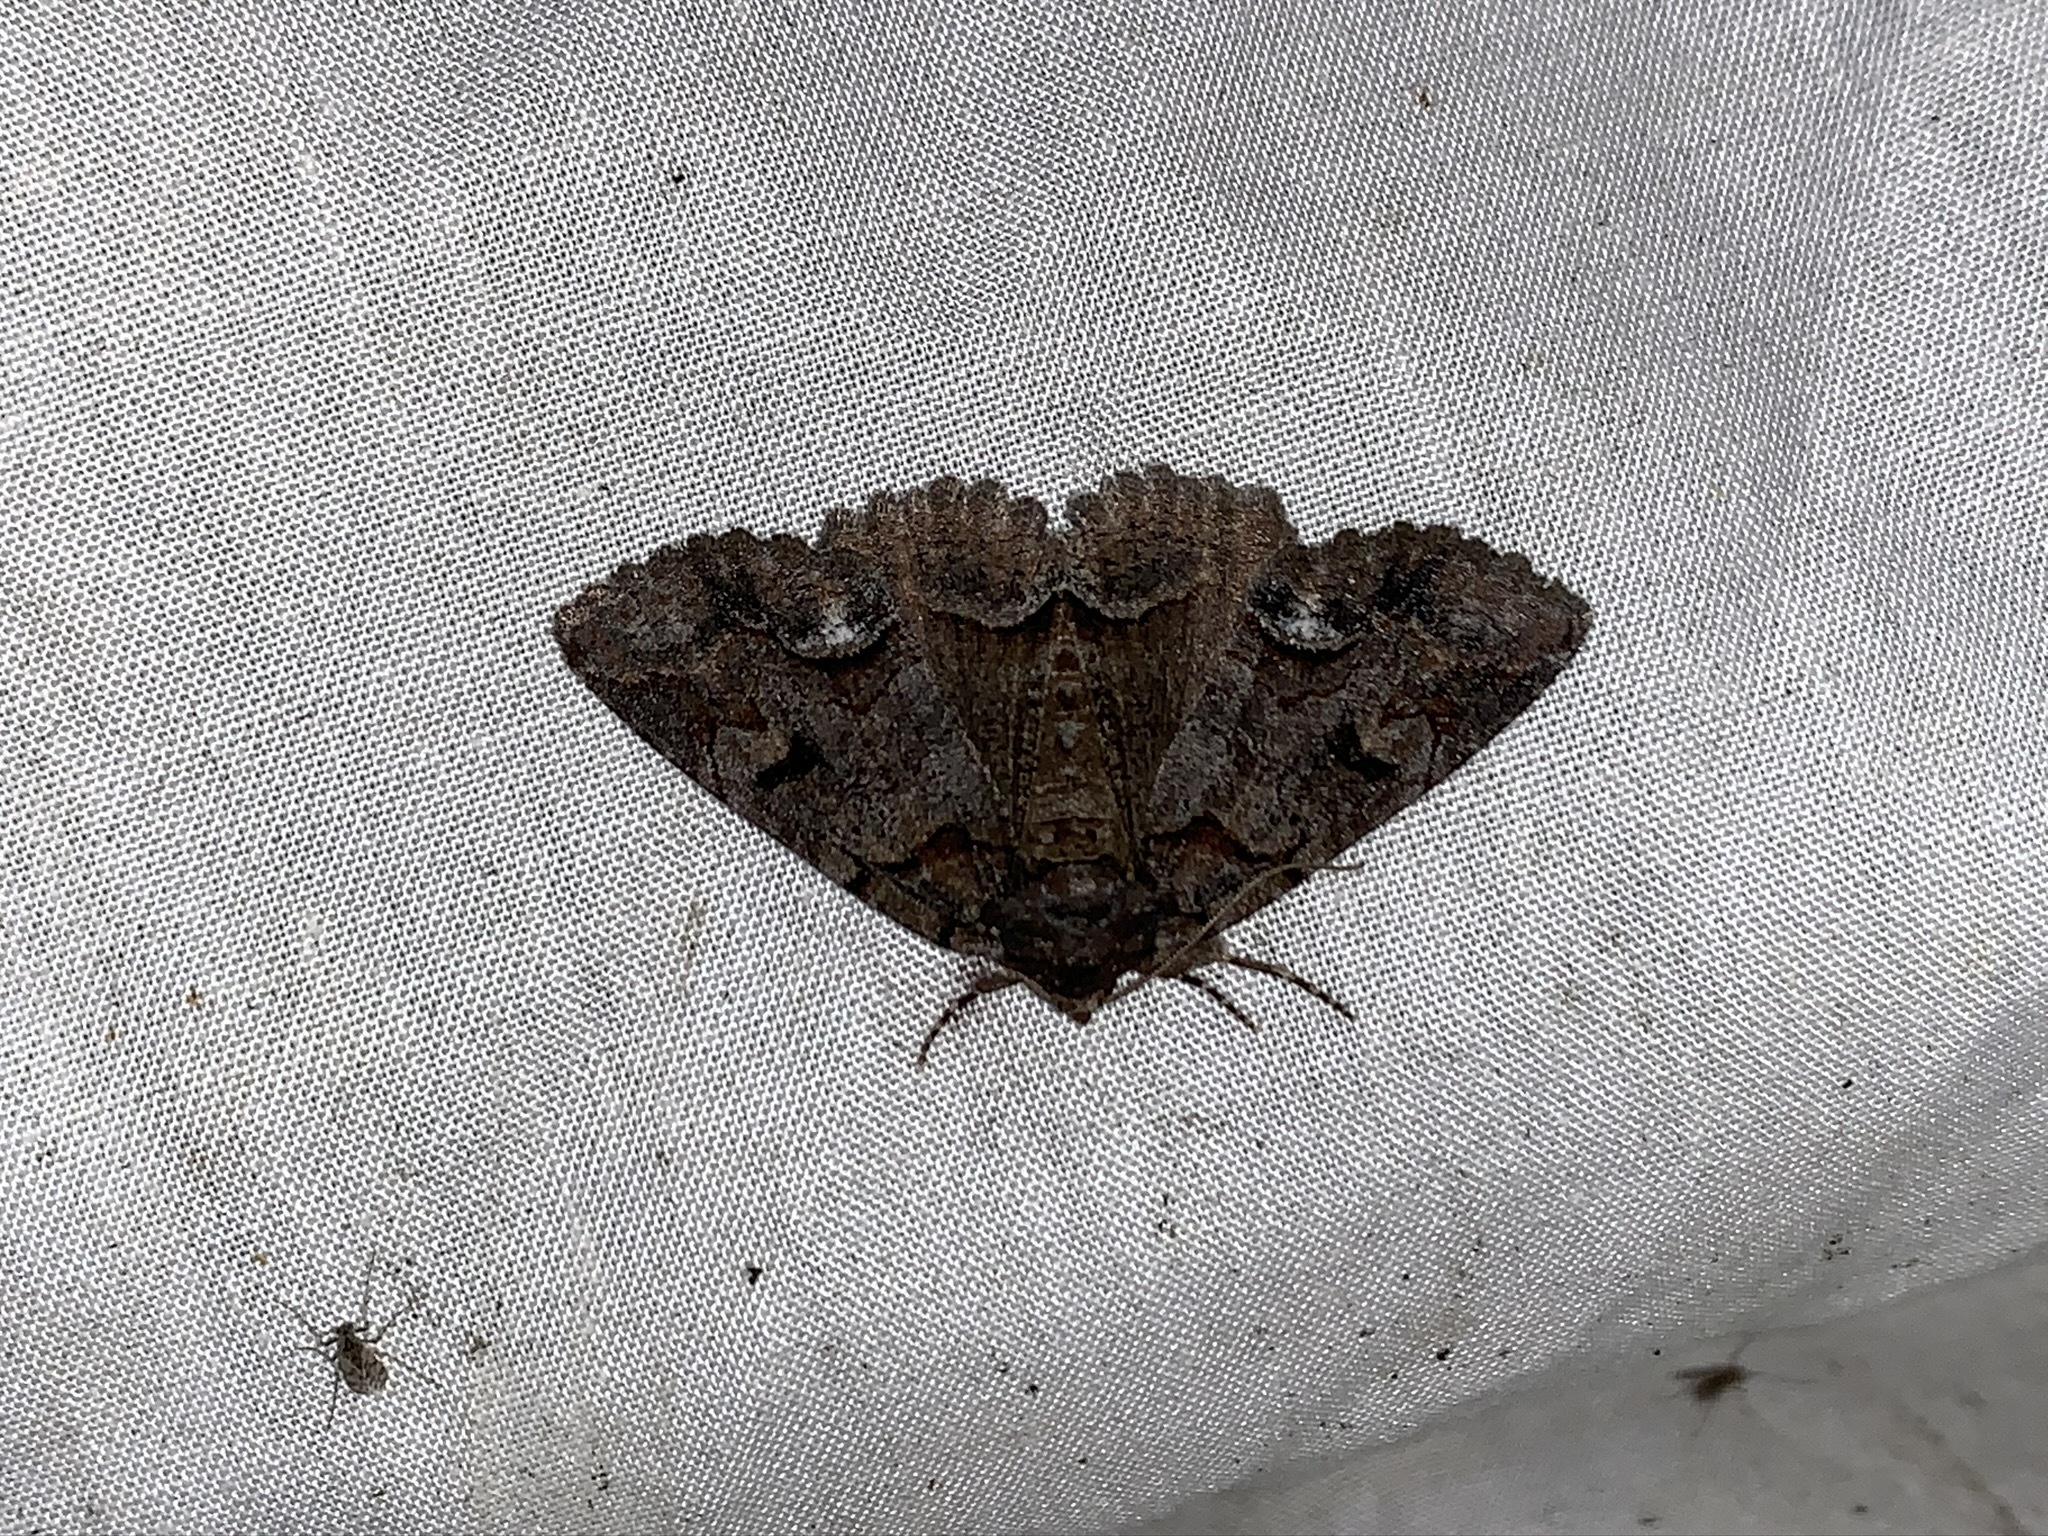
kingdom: Animalia
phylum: Arthropoda
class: Insecta
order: Lepidoptera
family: Erebidae
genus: Zale
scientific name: Zale helata
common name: Brown-spotted zale moth
